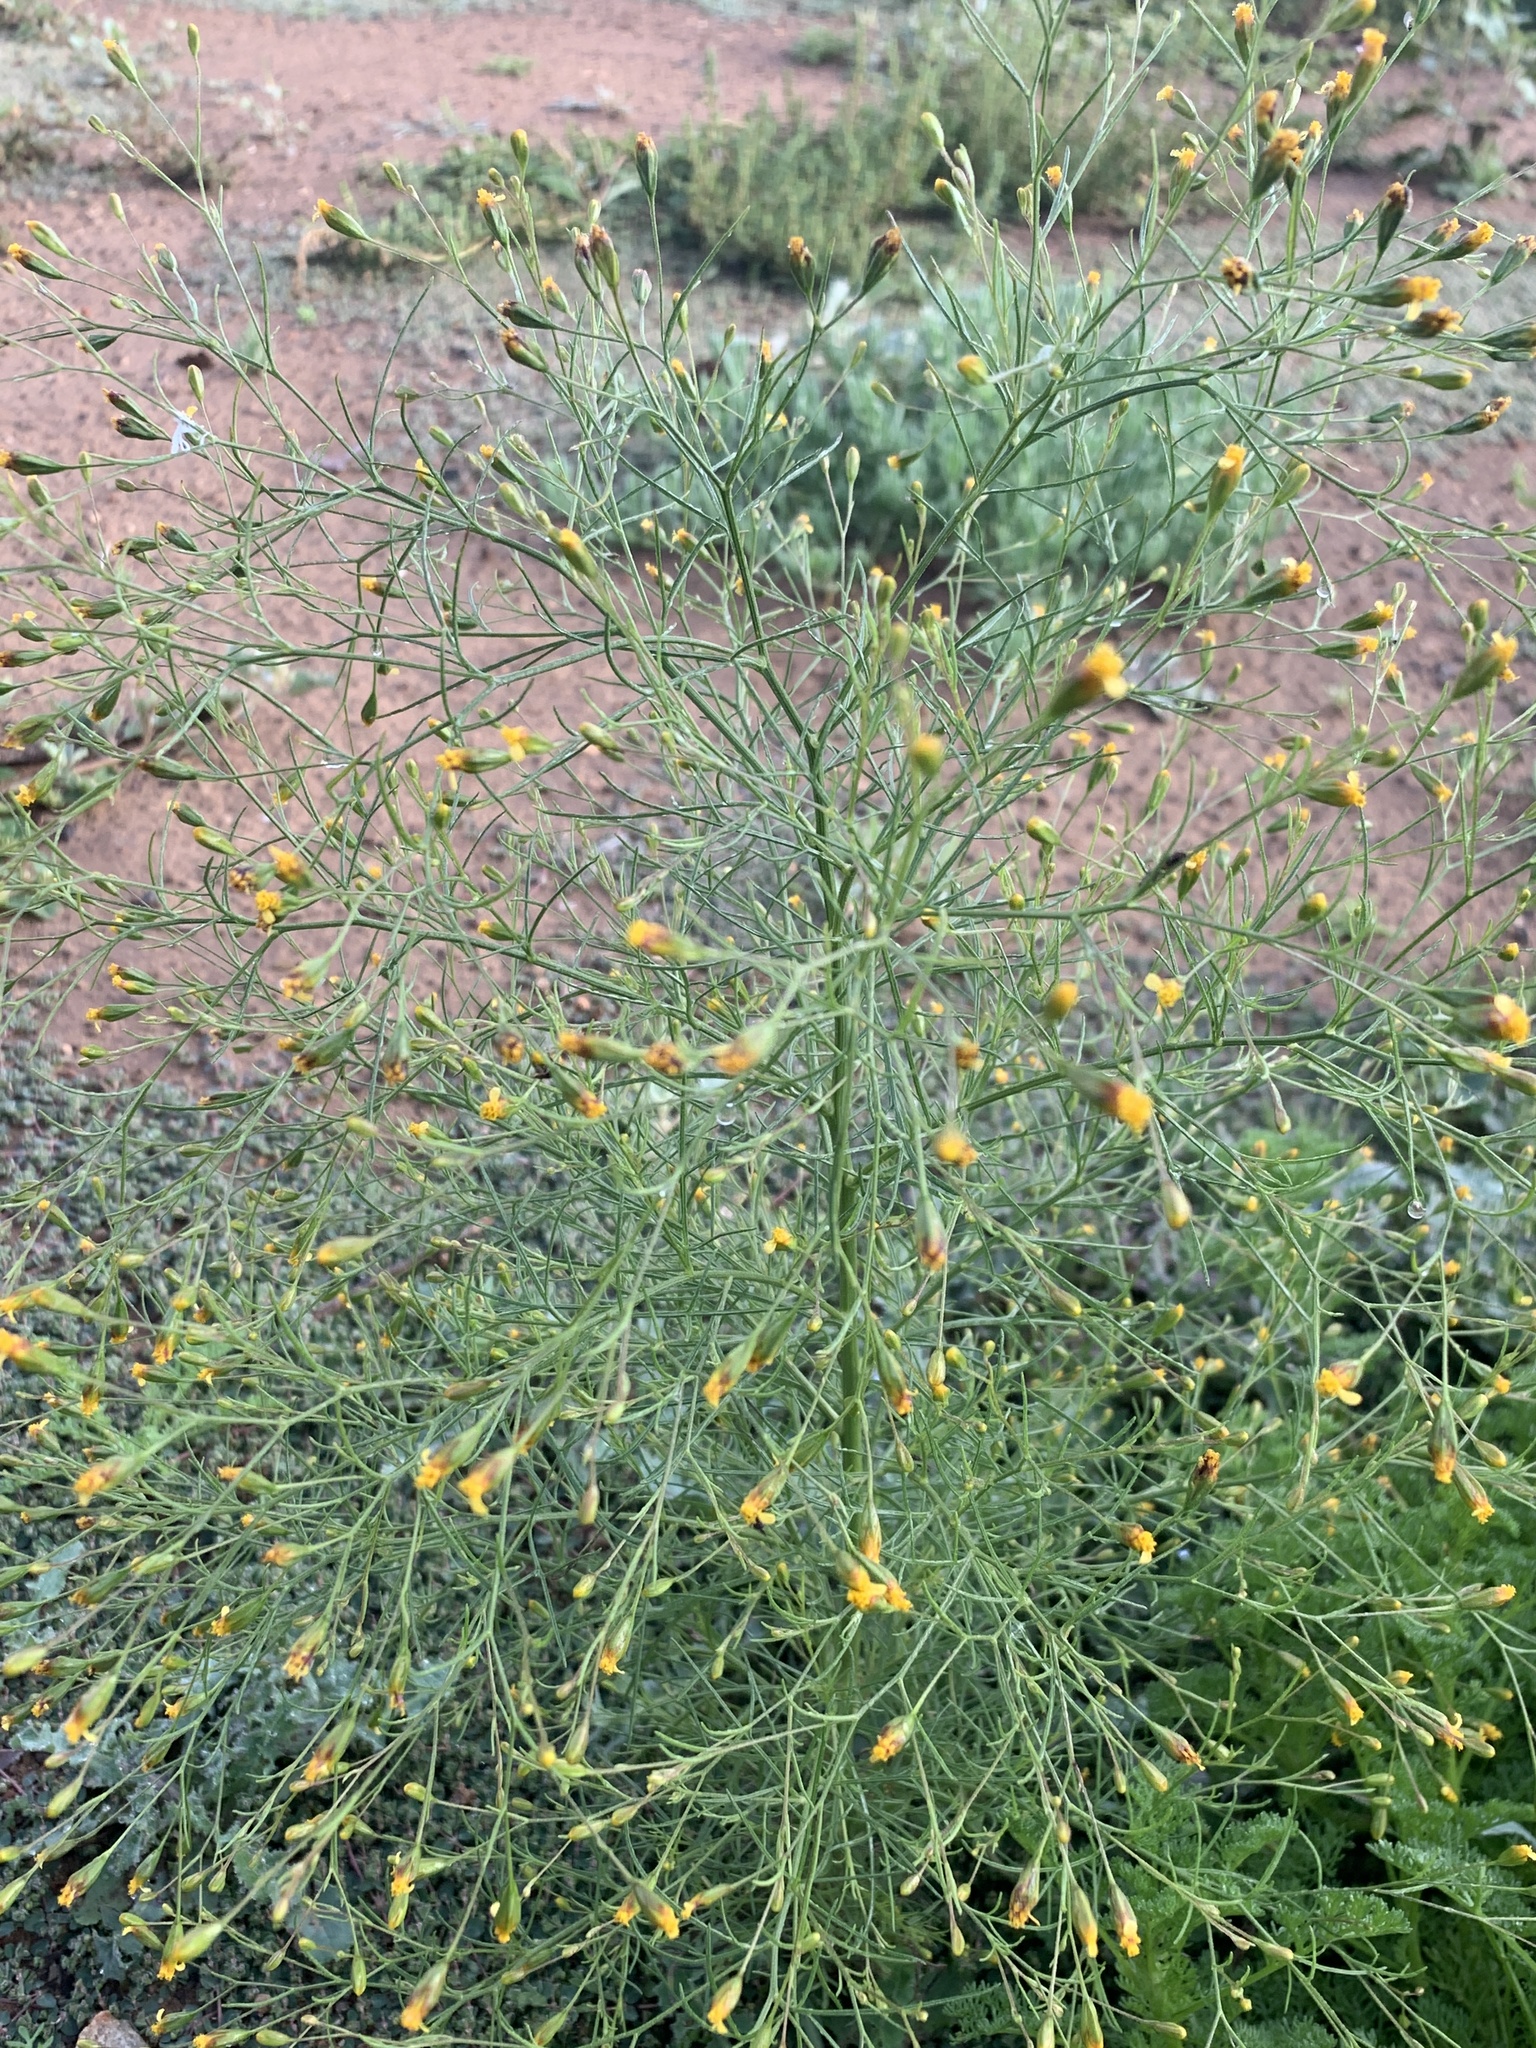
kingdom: Plantae
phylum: Tracheophyta
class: Magnoliopsida
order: Asterales
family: Asteraceae
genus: Schkuhria
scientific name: Schkuhria pinnata
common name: Dwarf marigold
